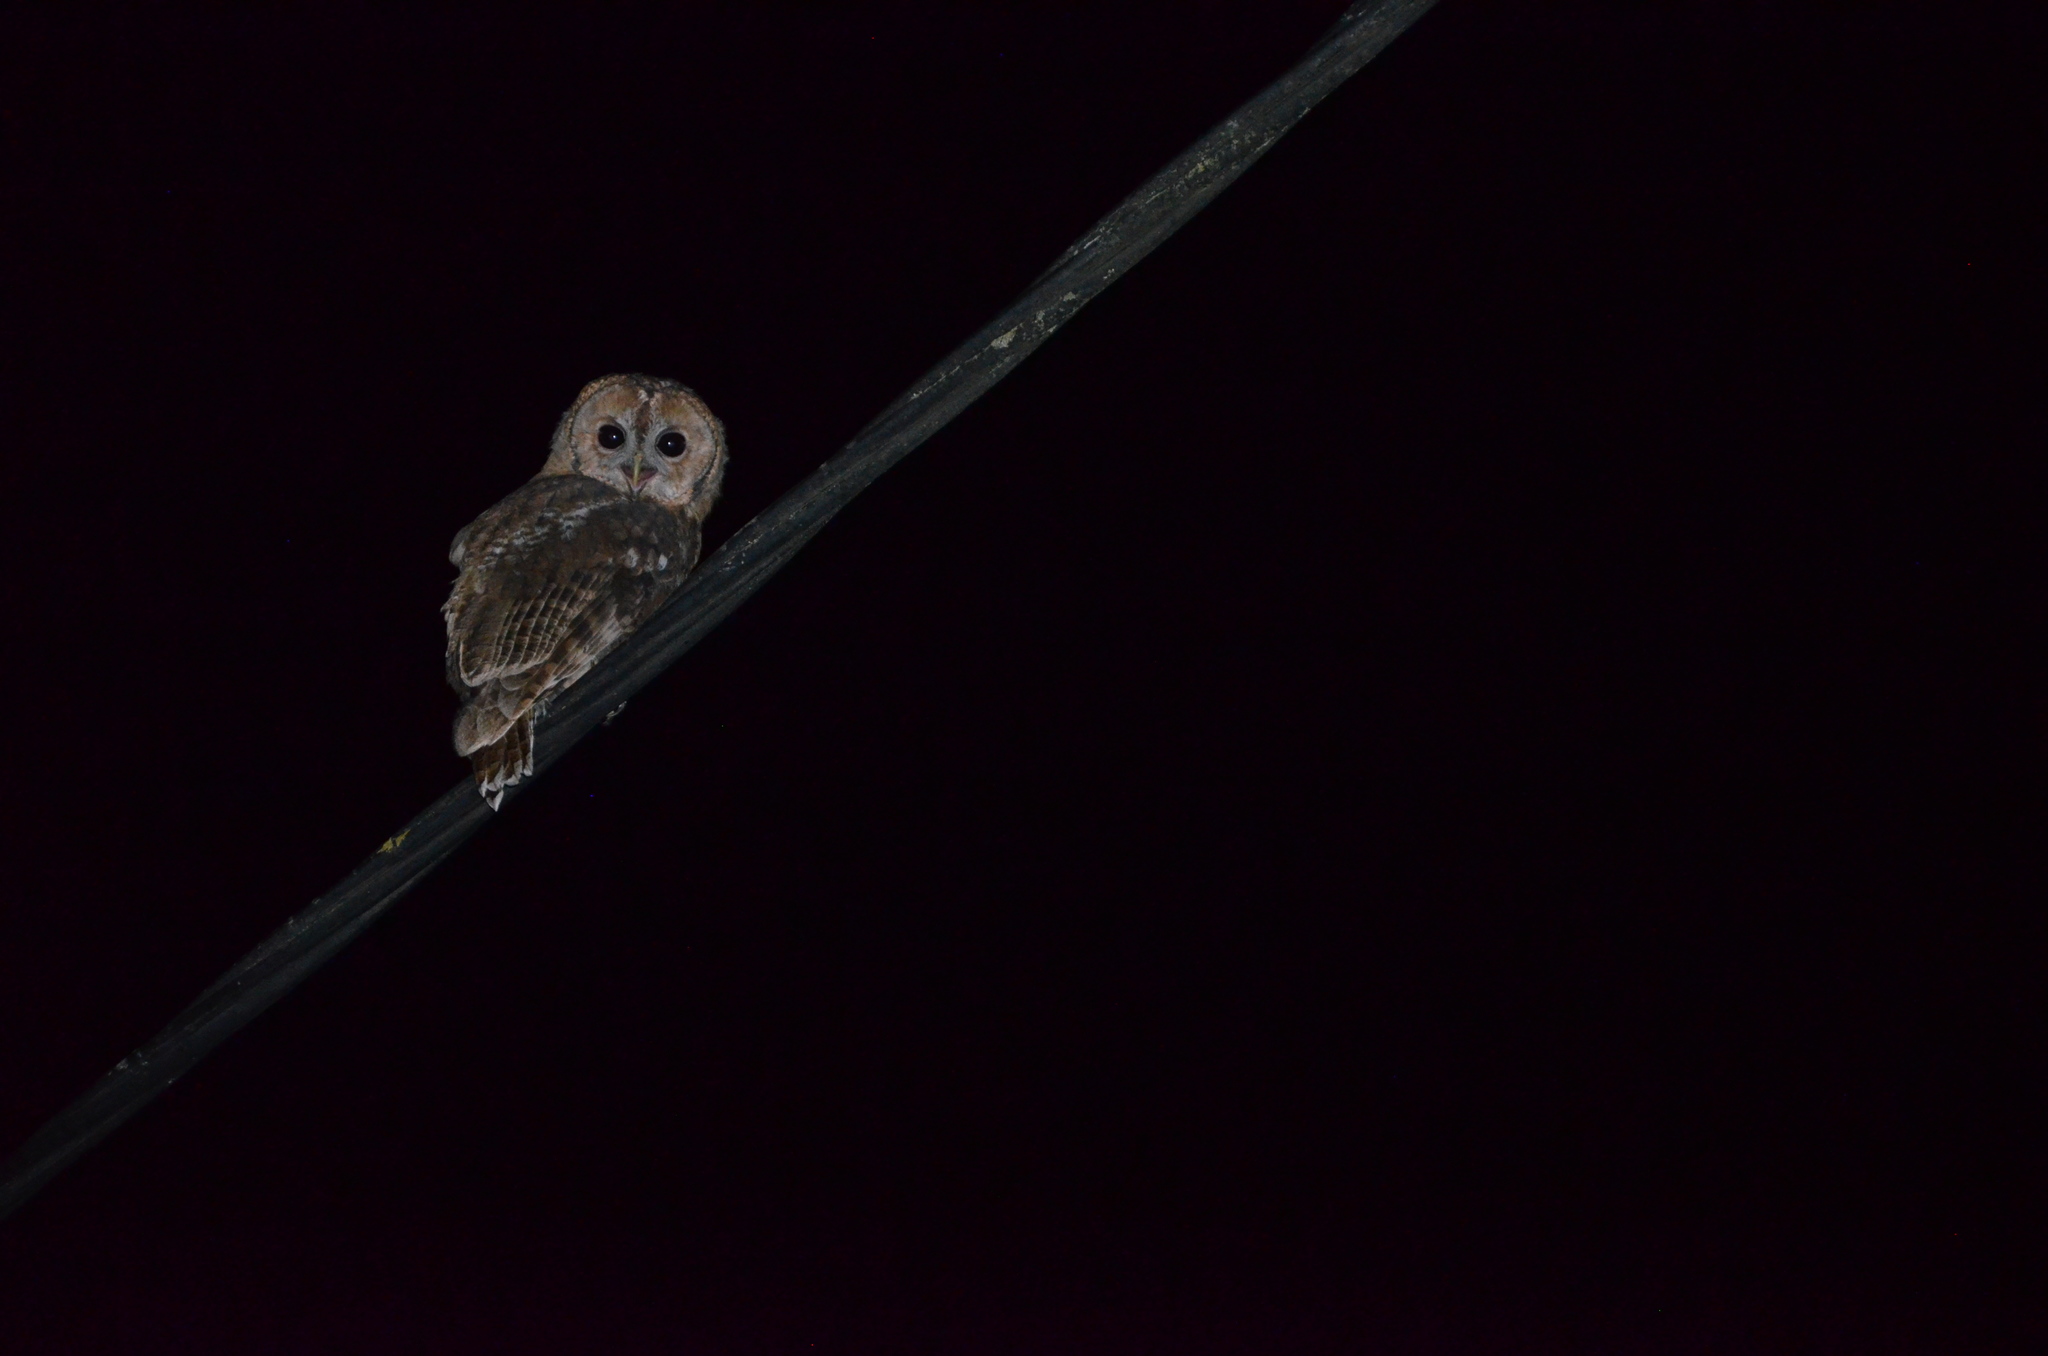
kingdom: Animalia
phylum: Chordata
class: Aves
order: Strigiformes
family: Strigidae
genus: Strix
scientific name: Strix aluco
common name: Tawny owl
